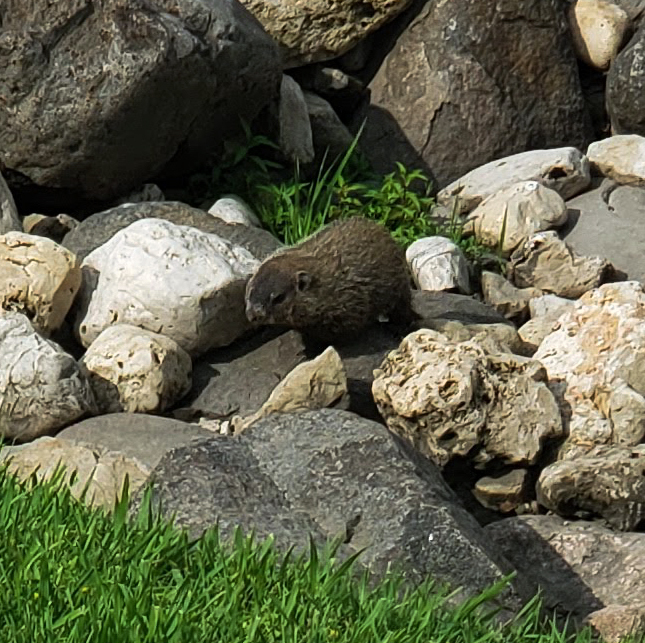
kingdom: Animalia
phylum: Chordata
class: Mammalia
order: Rodentia
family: Sciuridae
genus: Marmota
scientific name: Marmota monax
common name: Groundhog
